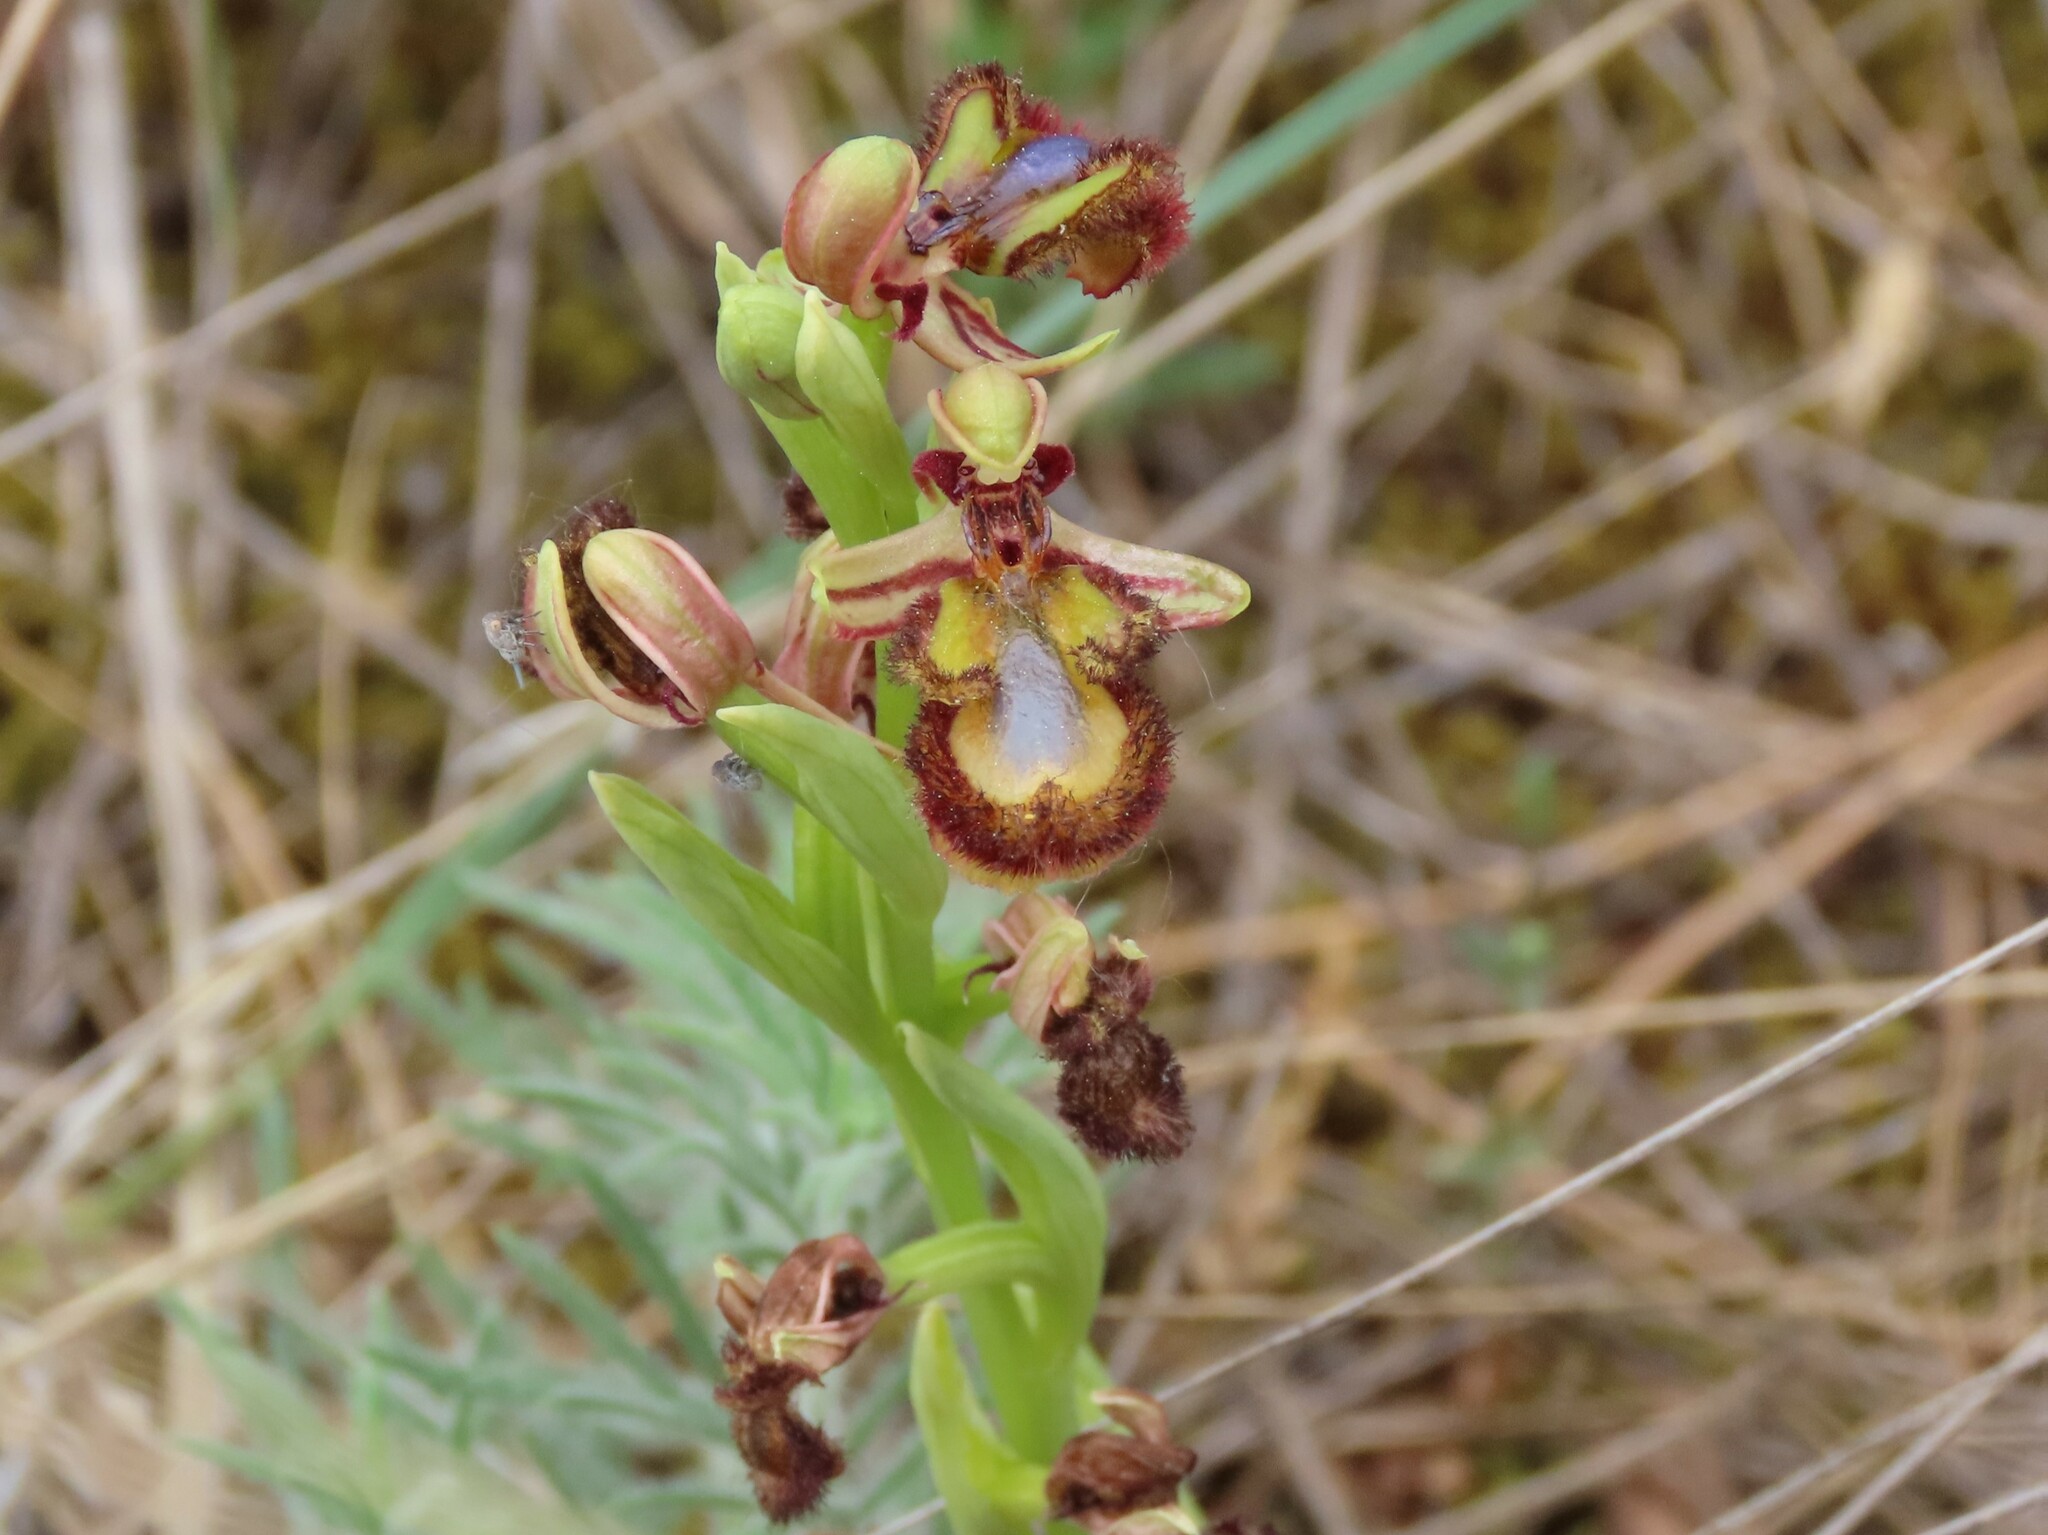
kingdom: Plantae
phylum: Tracheophyta
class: Liliopsida
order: Asparagales
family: Orchidaceae
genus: Ophrys
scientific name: Ophrys speculum
